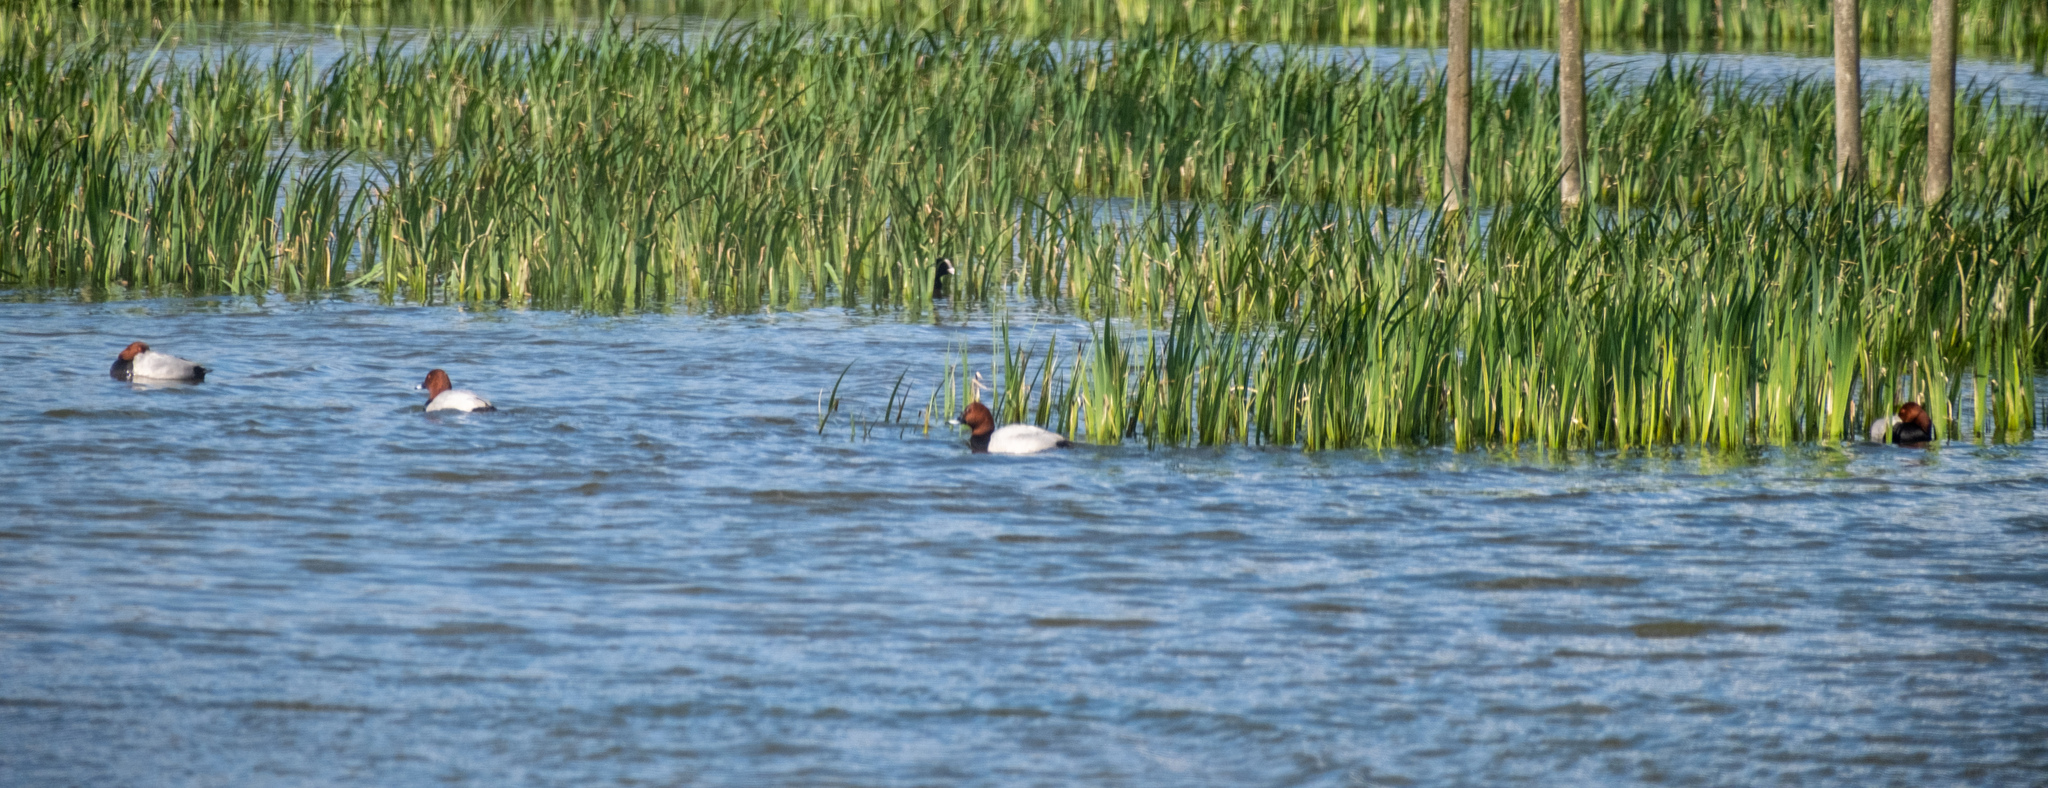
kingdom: Animalia
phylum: Chordata
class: Aves
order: Anseriformes
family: Anatidae
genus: Aythya
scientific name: Aythya ferina
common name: Common pochard
